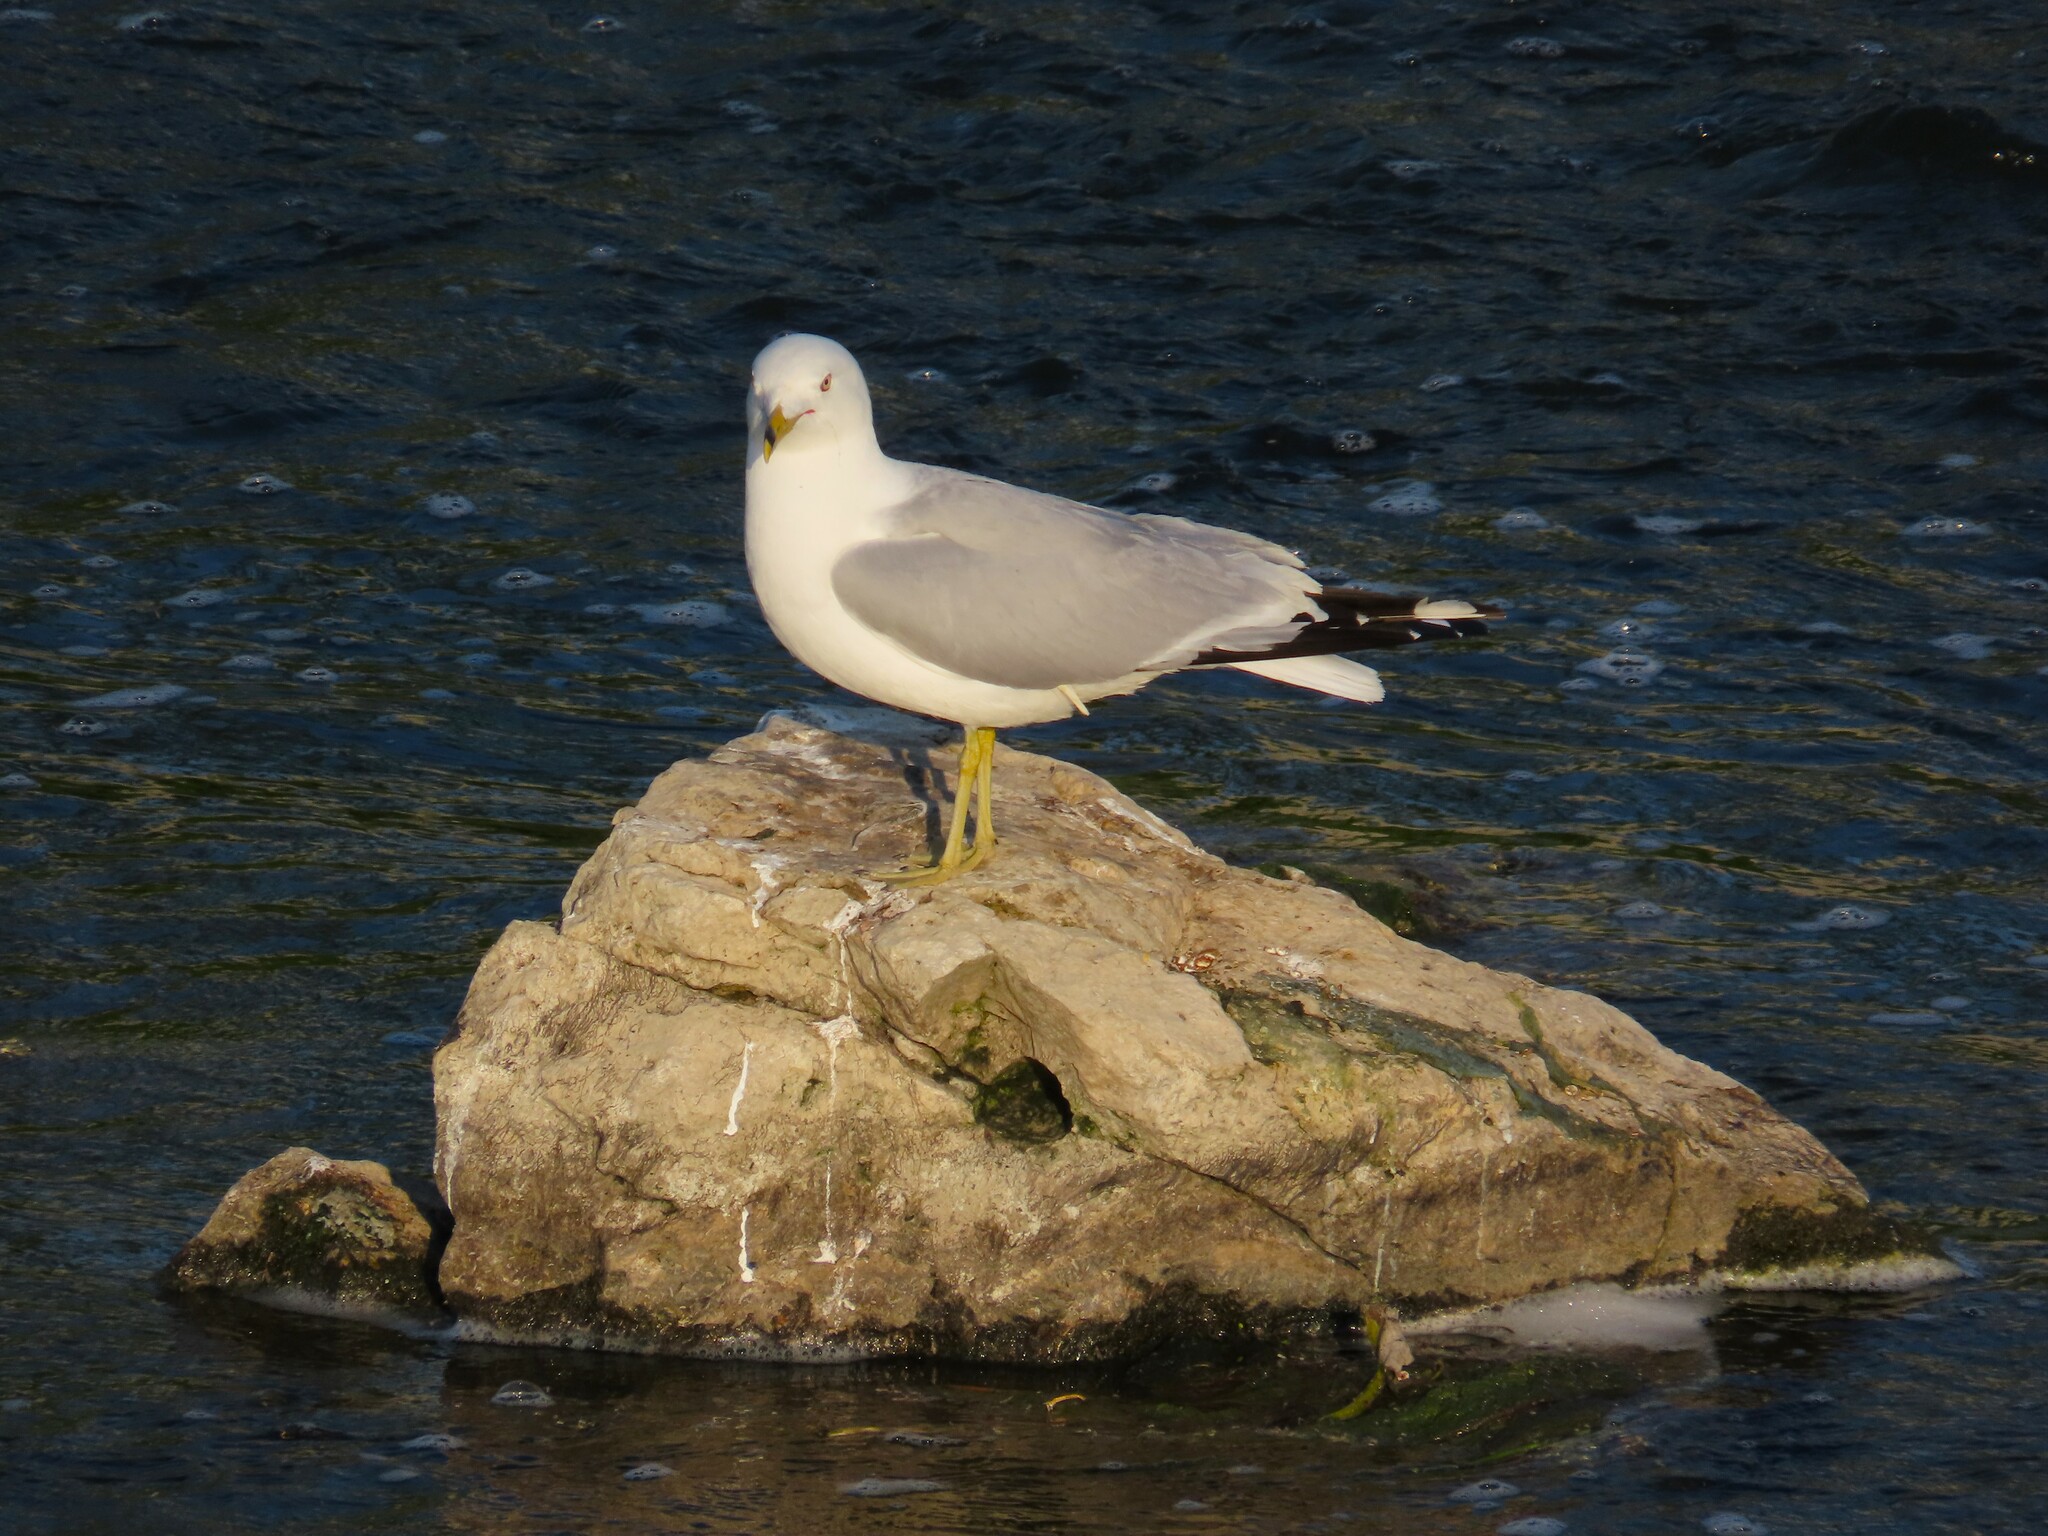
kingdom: Animalia
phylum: Chordata
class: Aves
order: Charadriiformes
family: Laridae
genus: Larus
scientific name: Larus delawarensis
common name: Ring-billed gull
